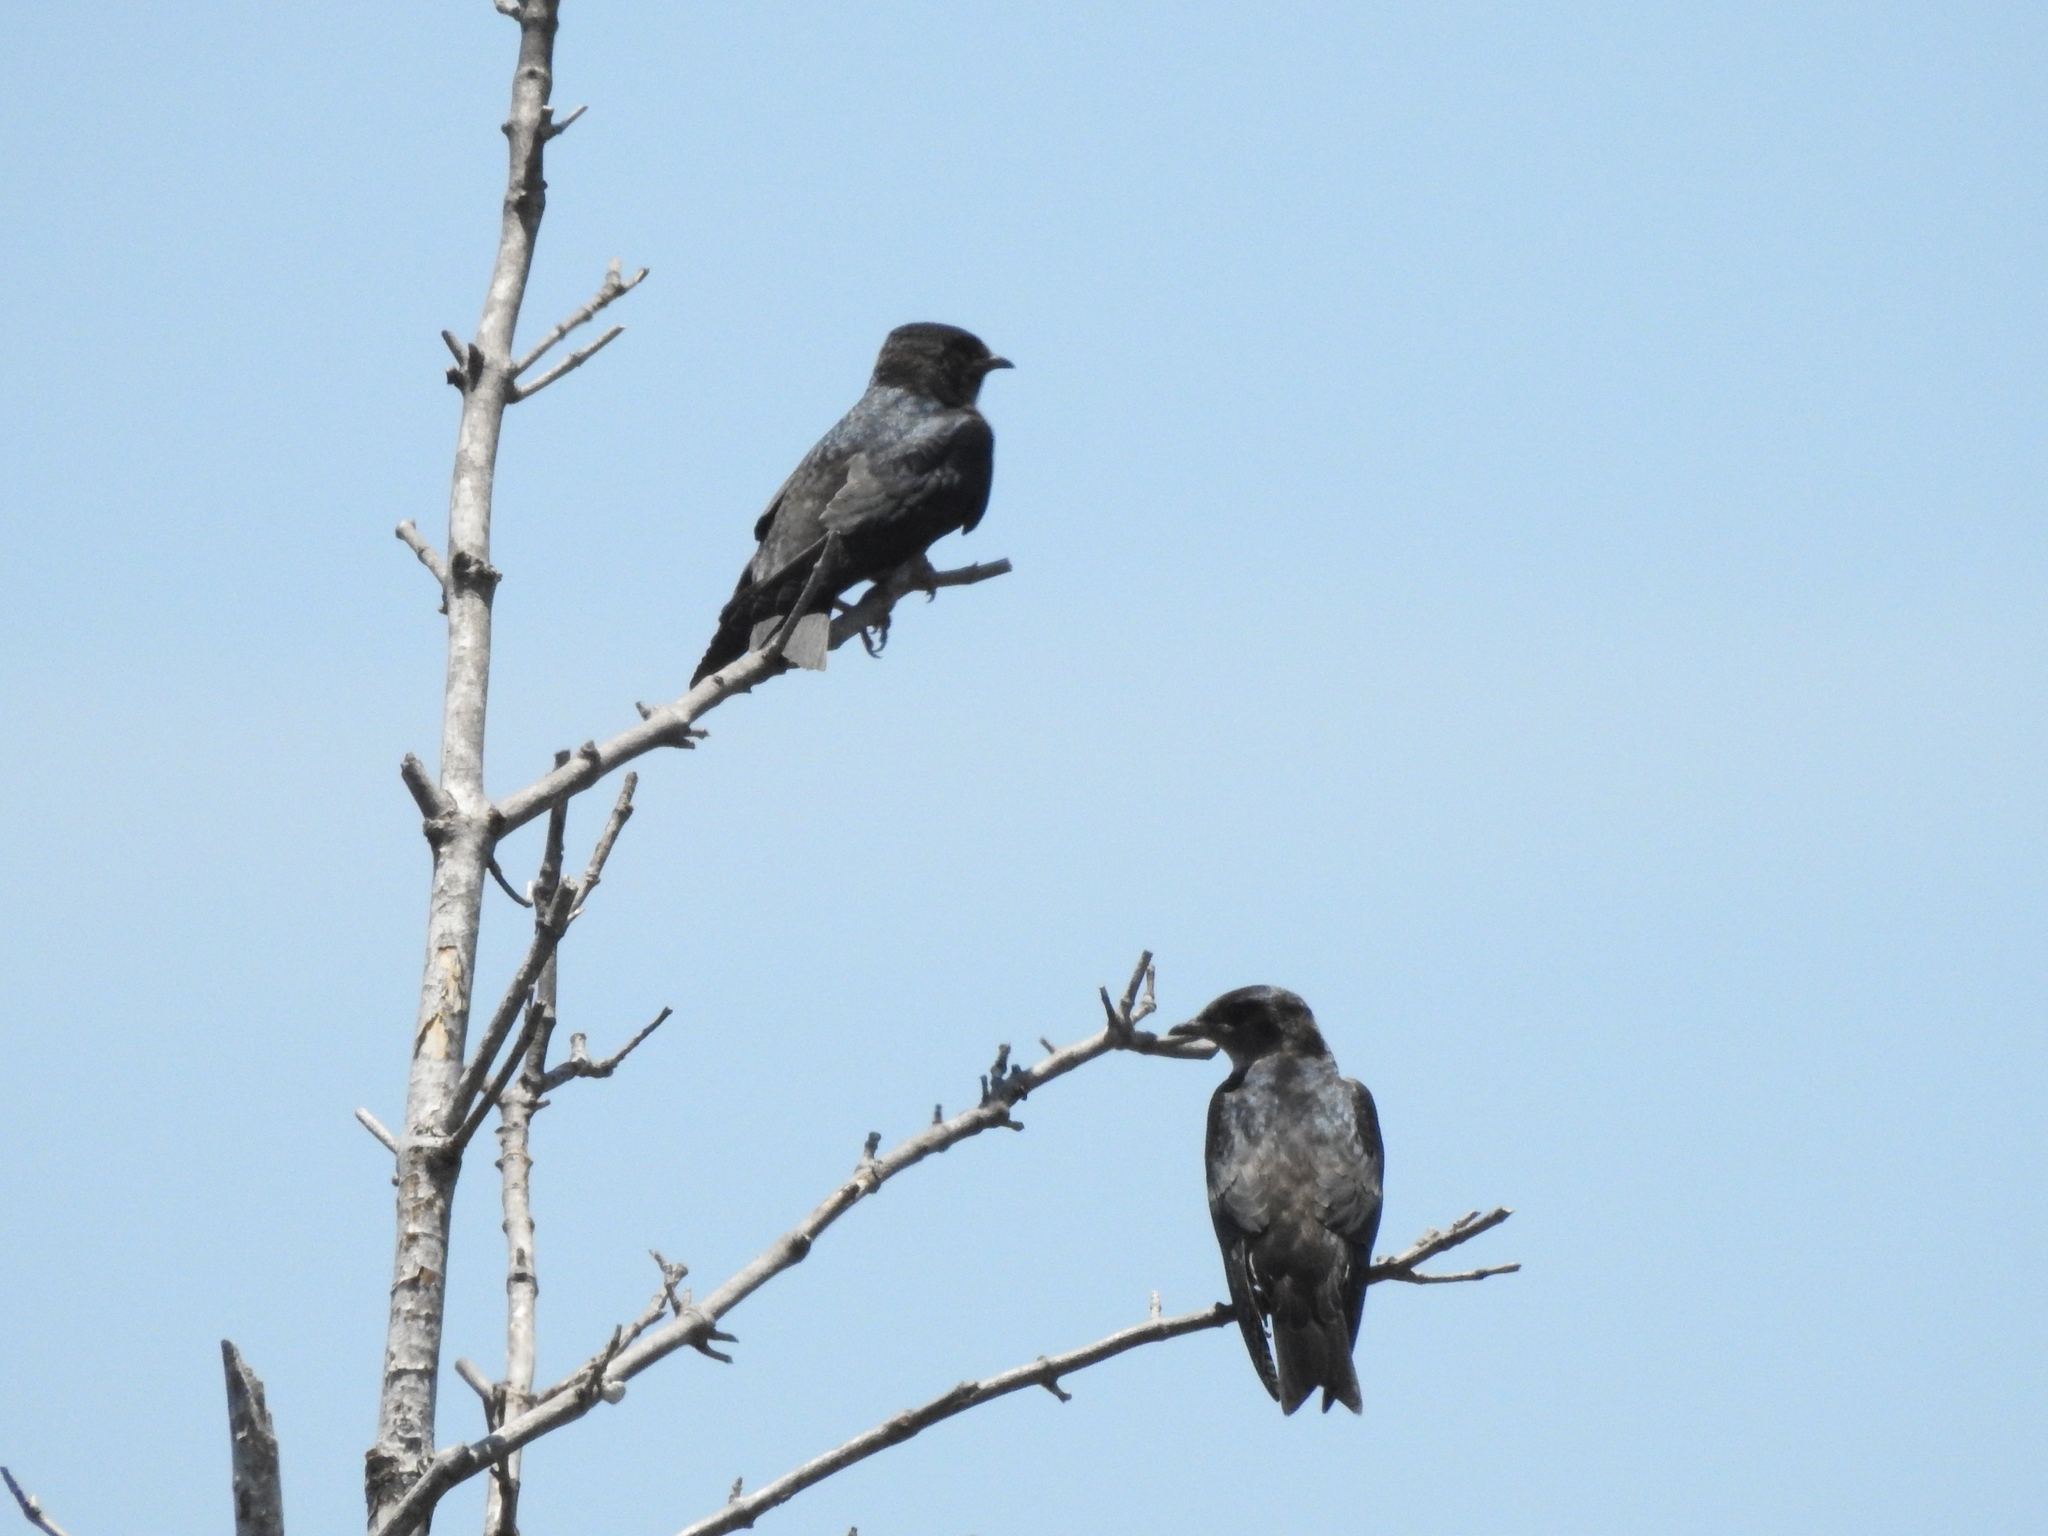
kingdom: Animalia
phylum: Chordata
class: Aves
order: Passeriformes
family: Hirundinidae
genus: Progne
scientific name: Progne subis
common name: Purple martin
